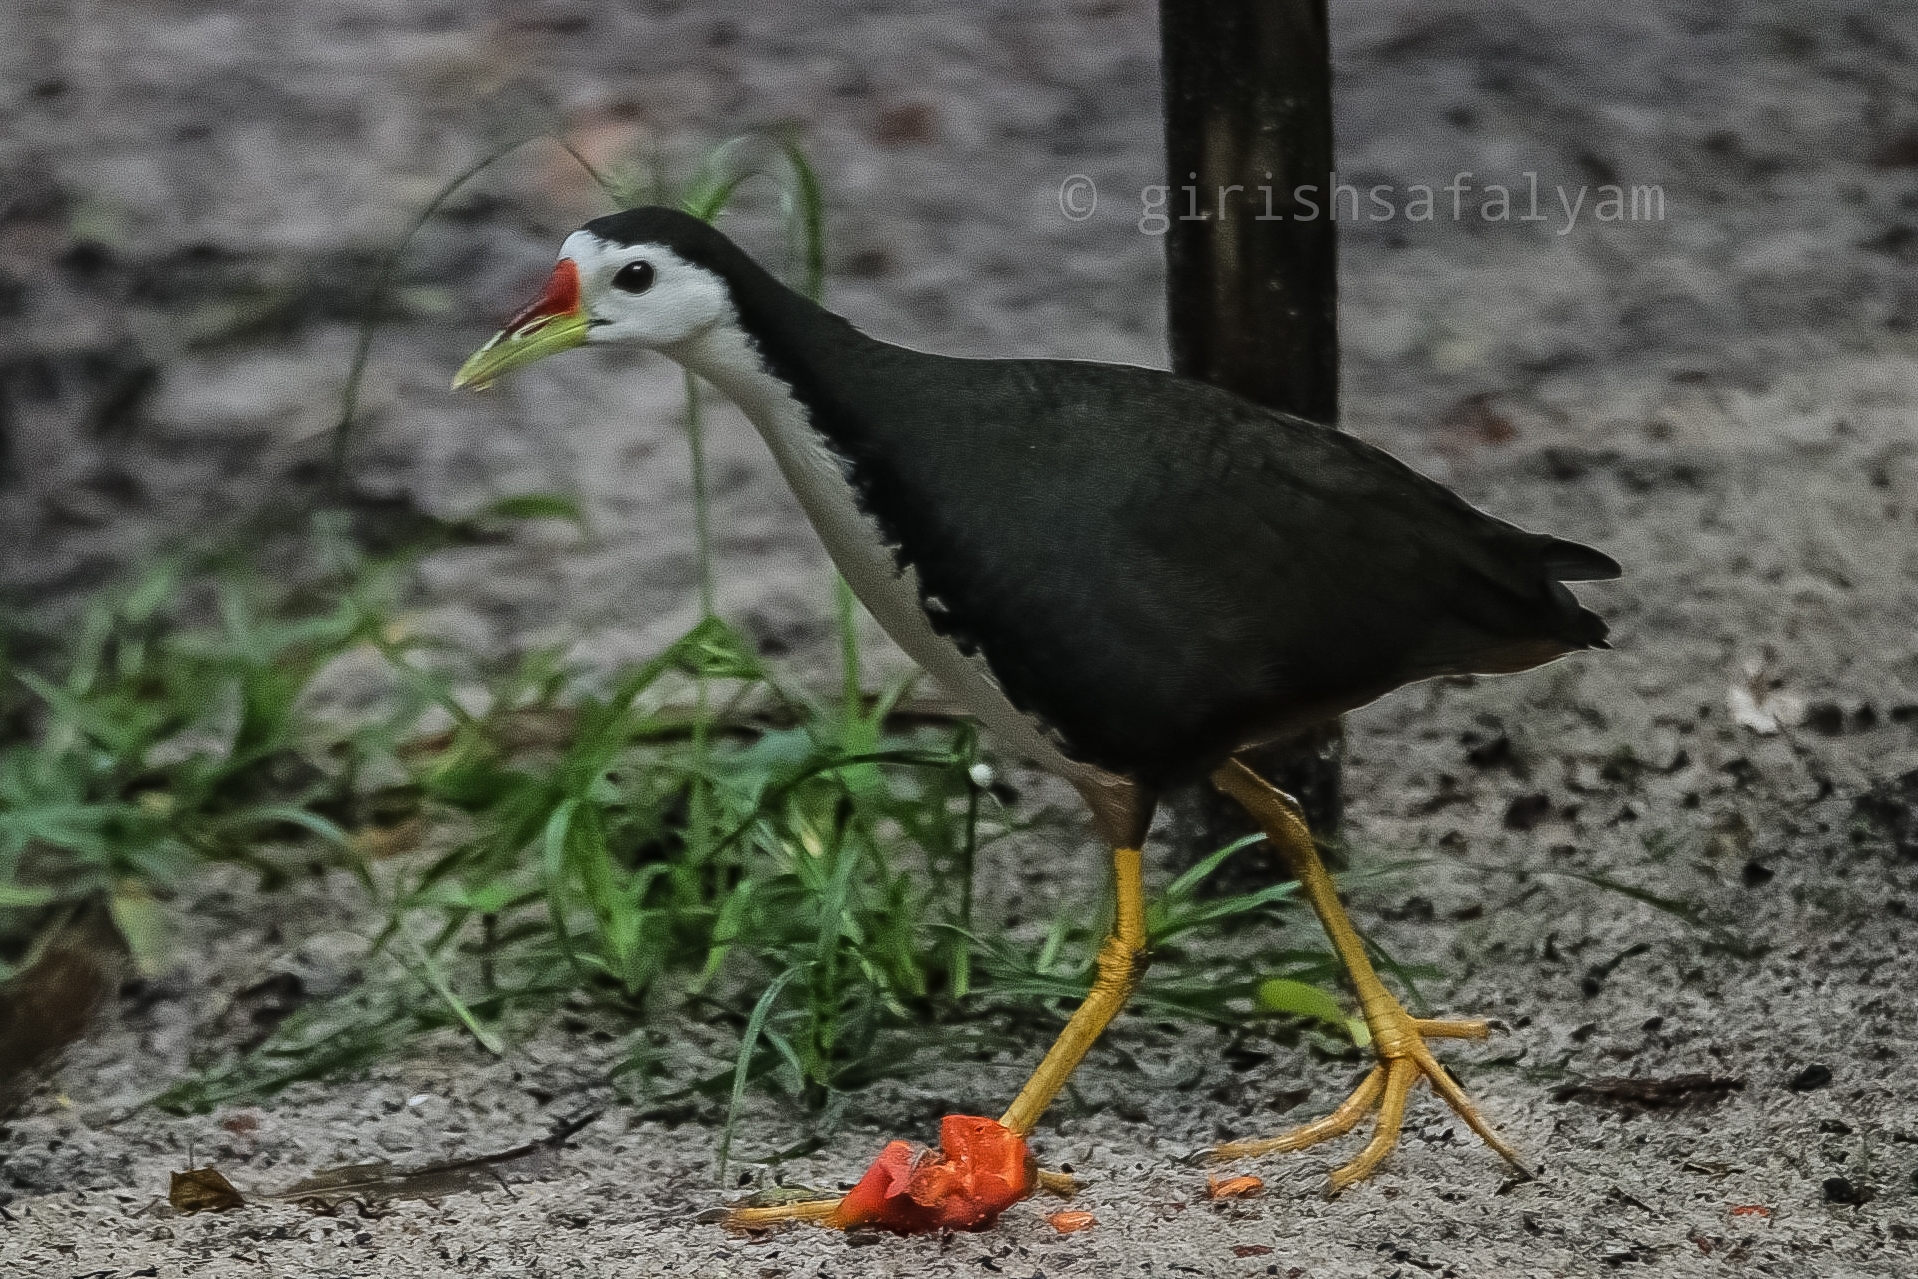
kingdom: Animalia
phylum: Chordata
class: Aves
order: Gruiformes
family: Rallidae
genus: Amaurornis
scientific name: Amaurornis phoenicurus
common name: White-breasted waterhen
